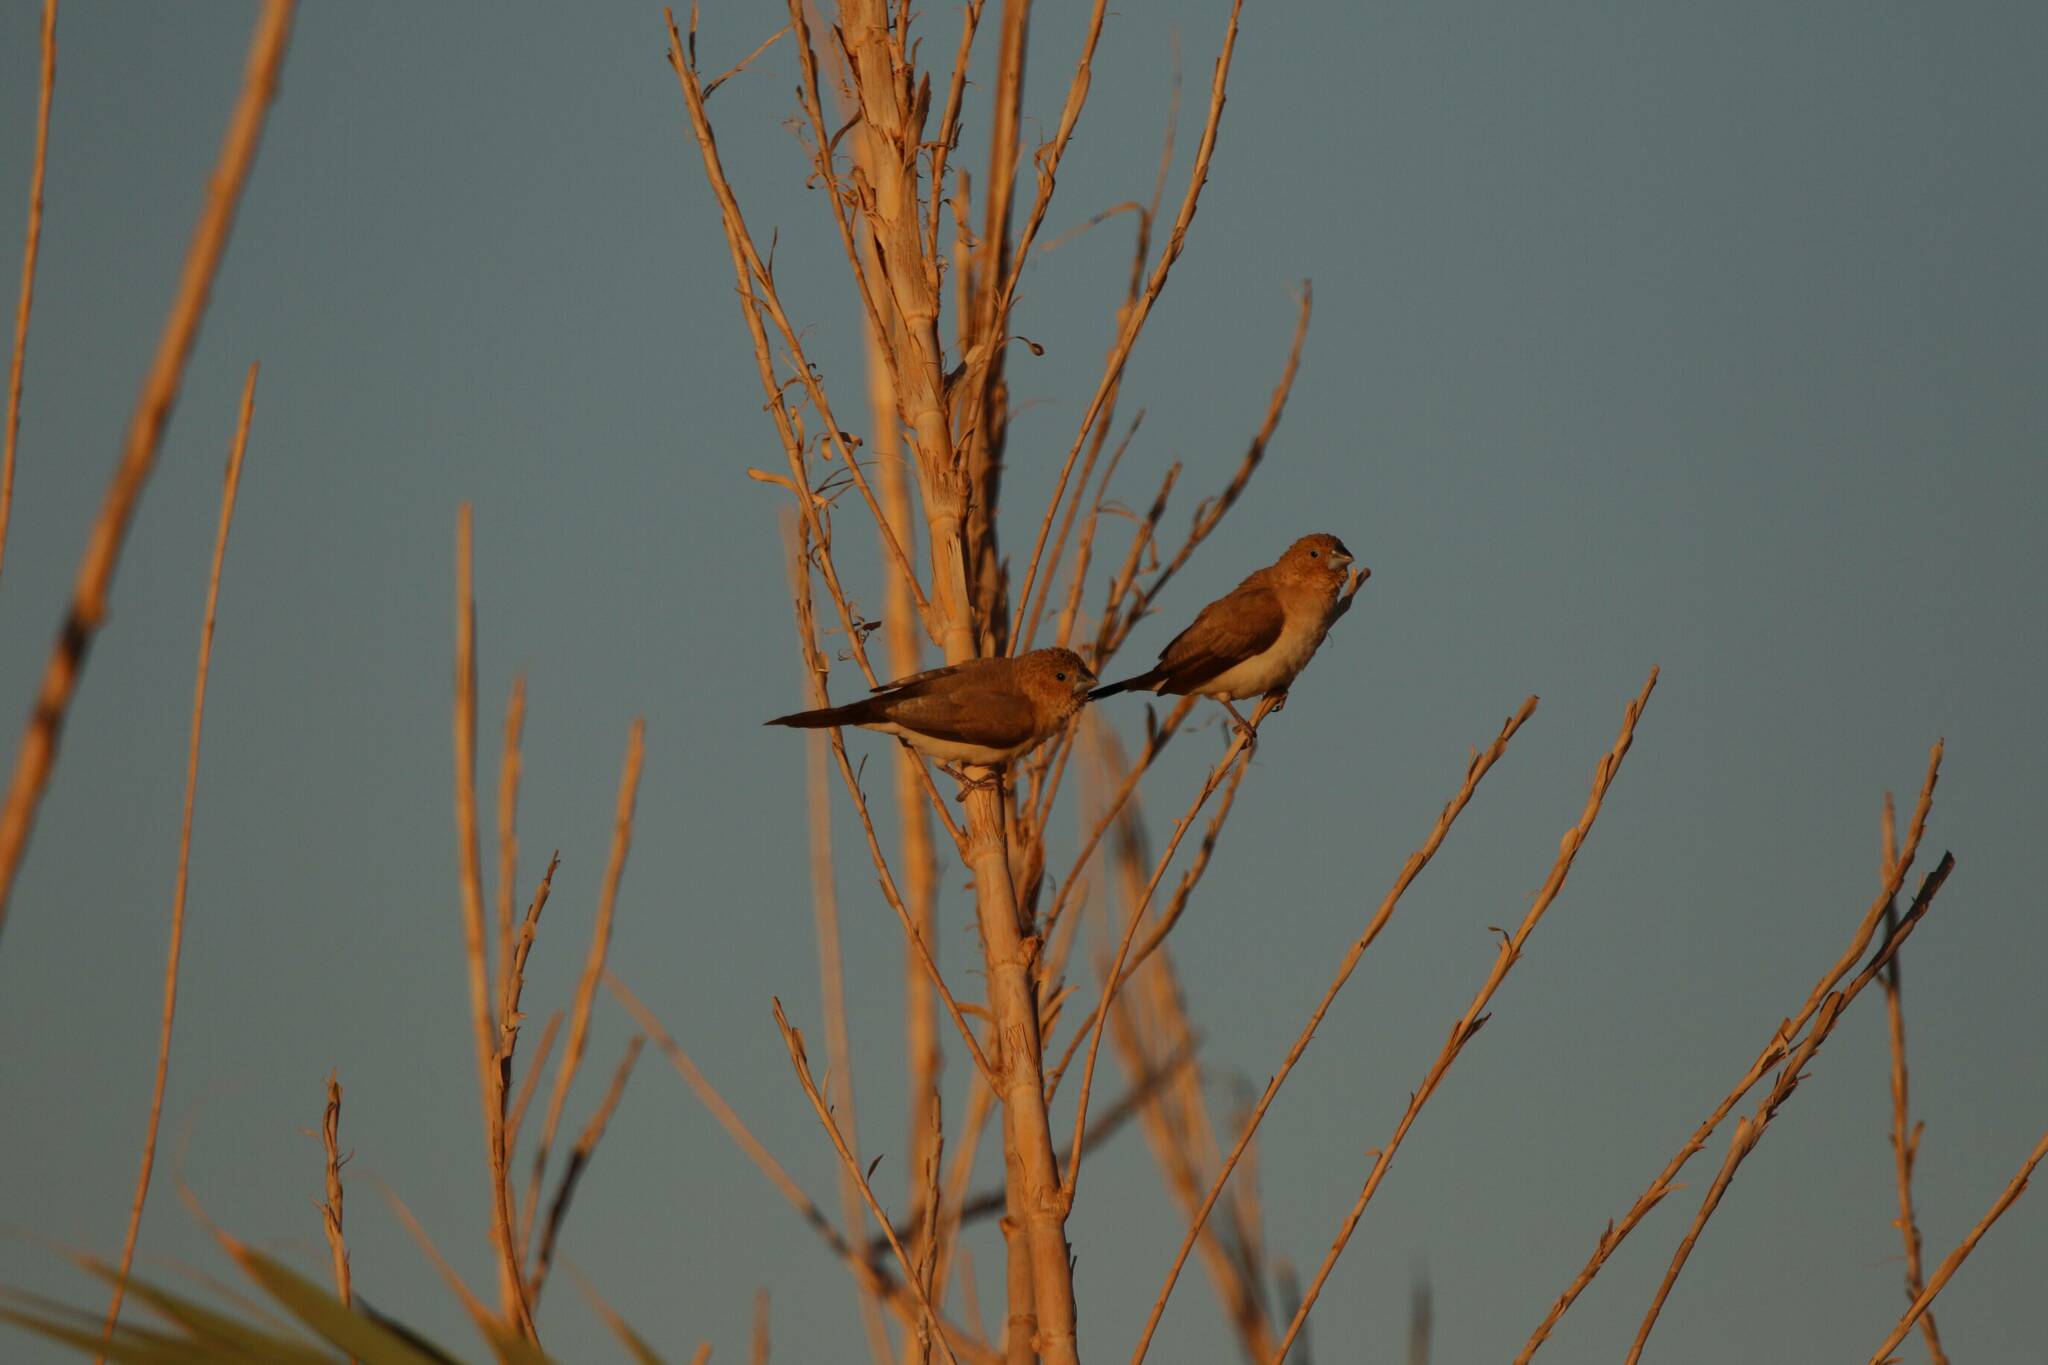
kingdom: Animalia
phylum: Chordata
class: Aves
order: Passeriformes
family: Estrildidae
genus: Euodice
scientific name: Euodice cantans
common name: African silverbill
